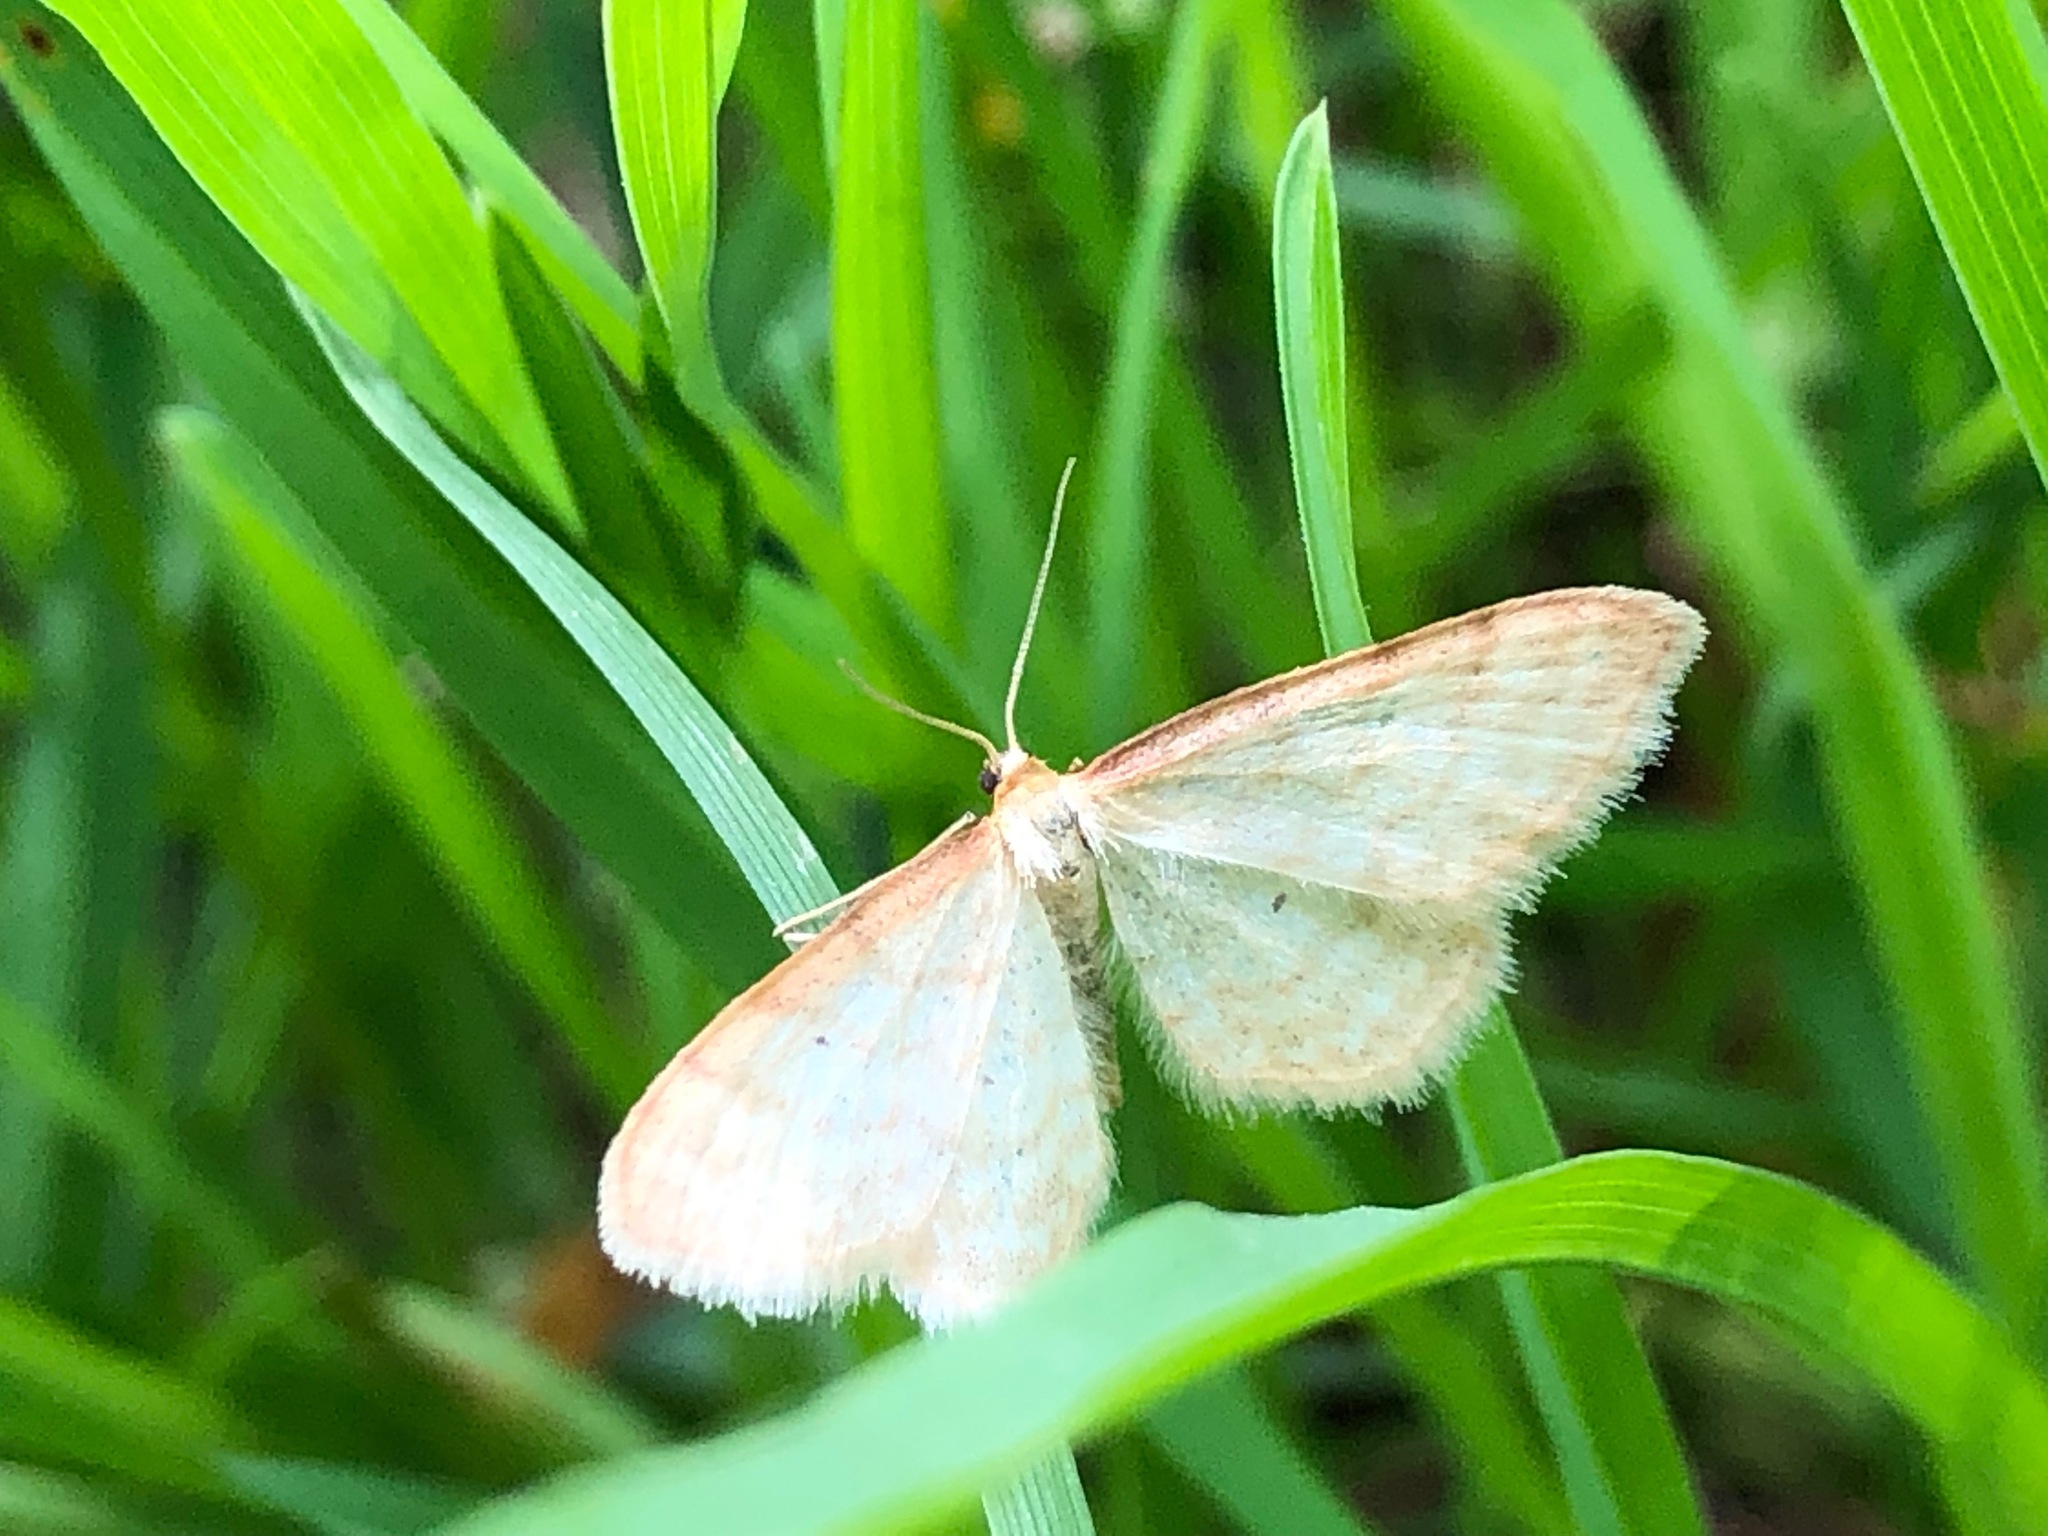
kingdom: Animalia
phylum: Arthropoda
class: Insecta
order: Lepidoptera
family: Geometridae
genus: Idaea
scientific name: Idaea humiliata
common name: Isle of wight wave
